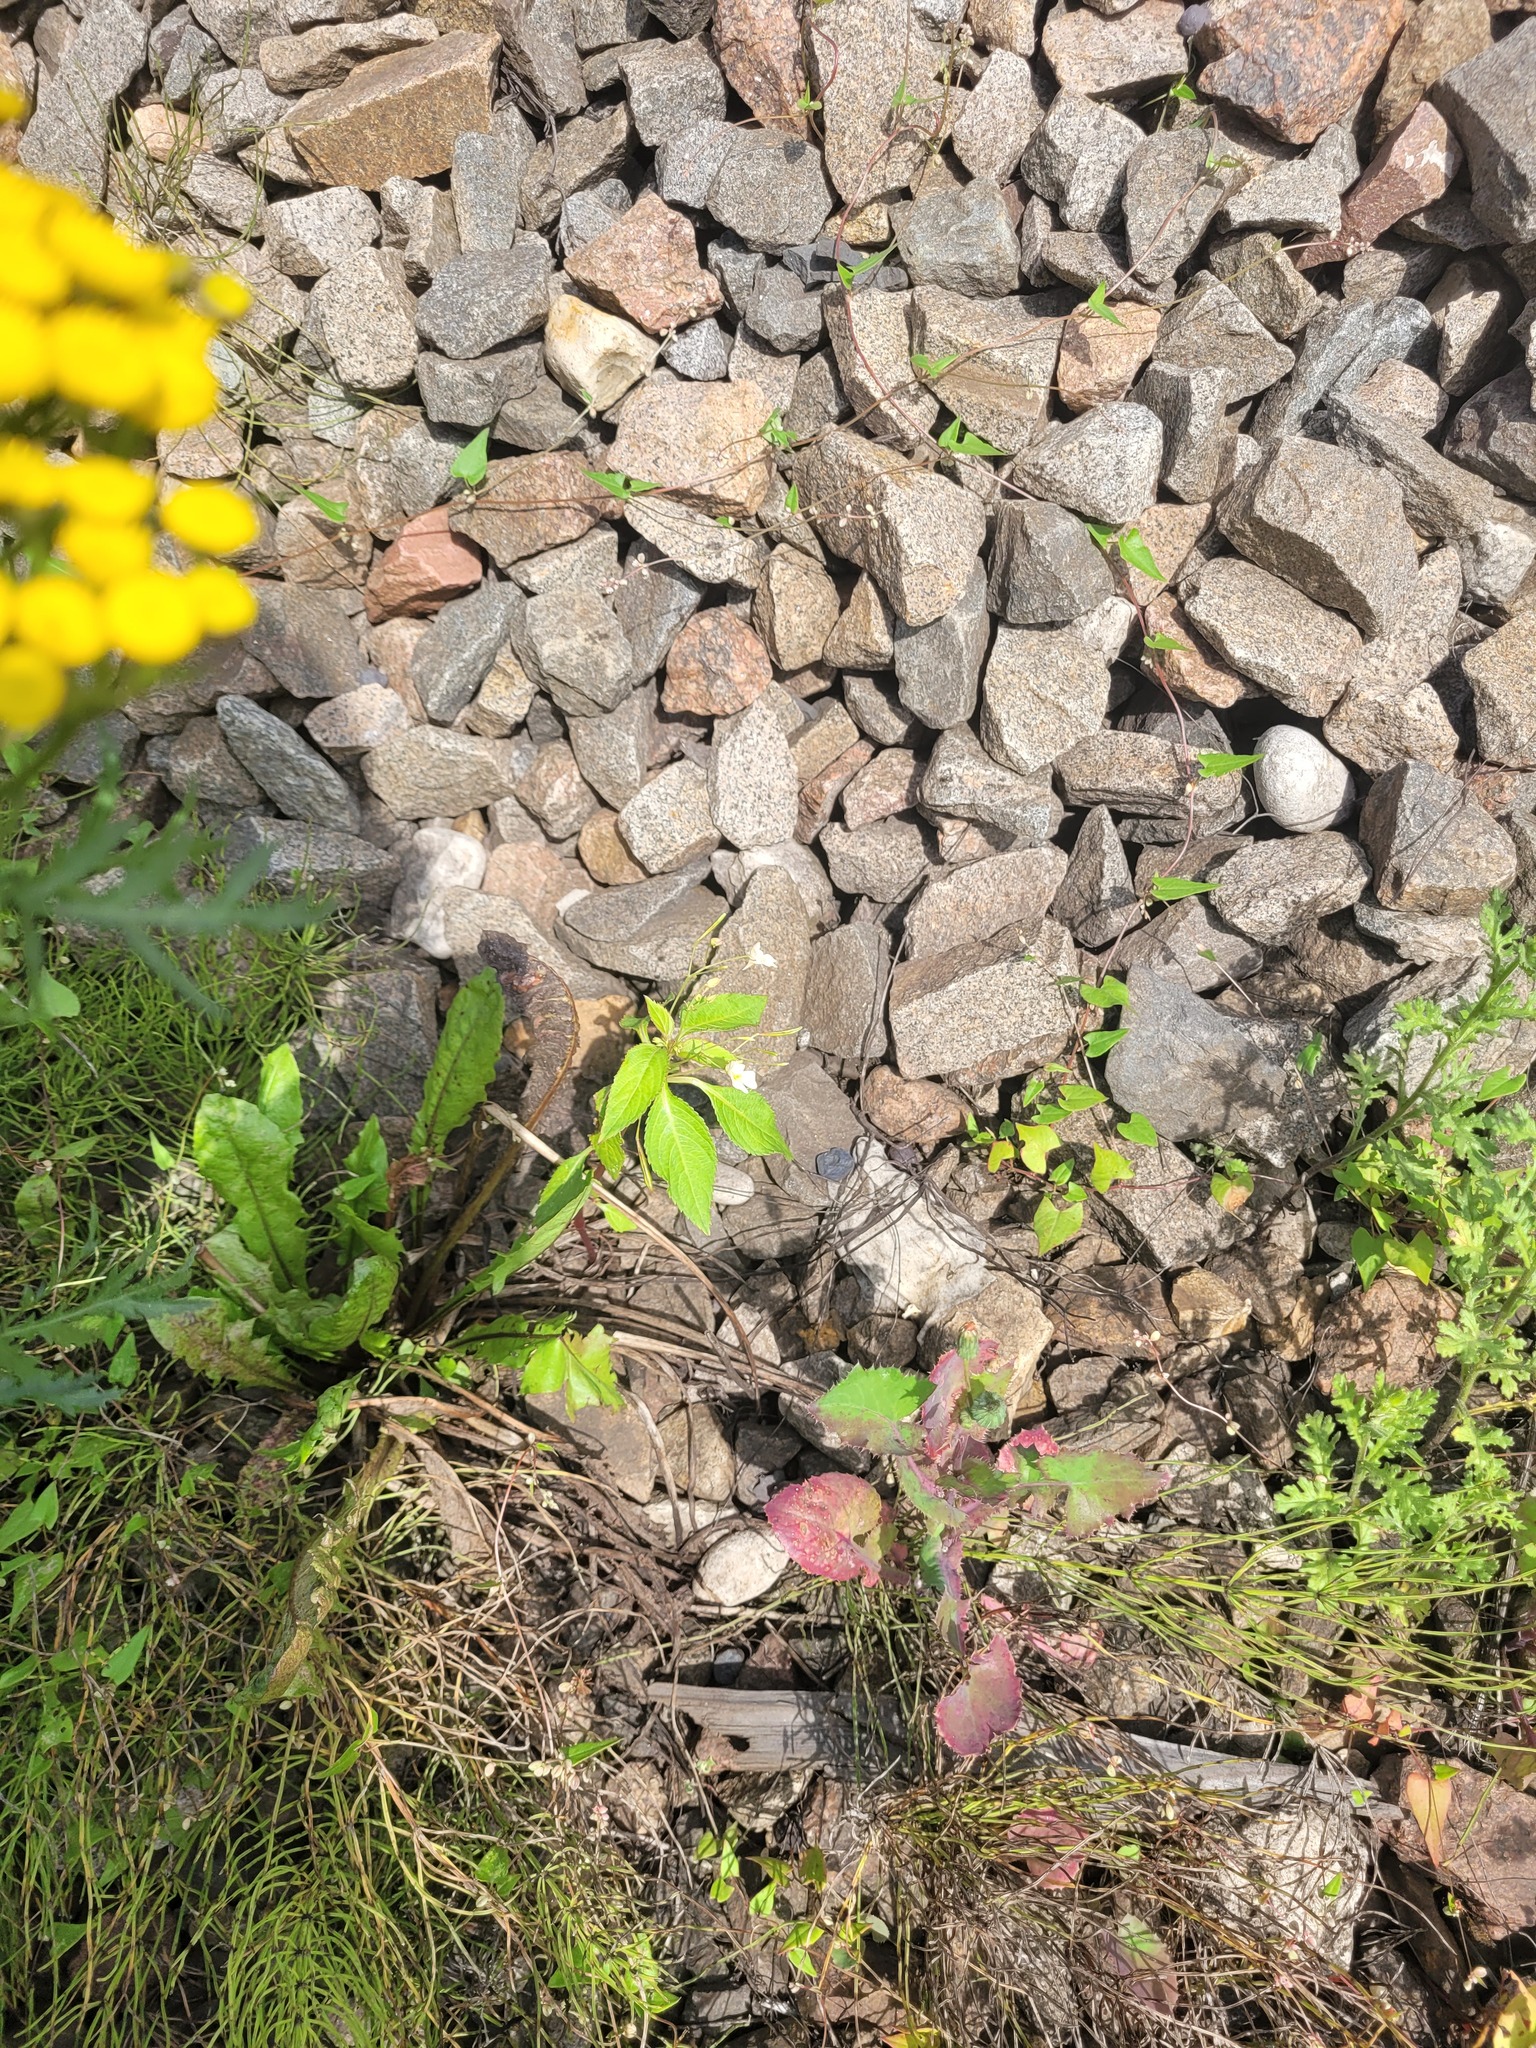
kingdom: Plantae
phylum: Tracheophyta
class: Magnoliopsida
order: Ericales
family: Balsaminaceae
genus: Impatiens
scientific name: Impatiens parviflora
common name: Small balsam
